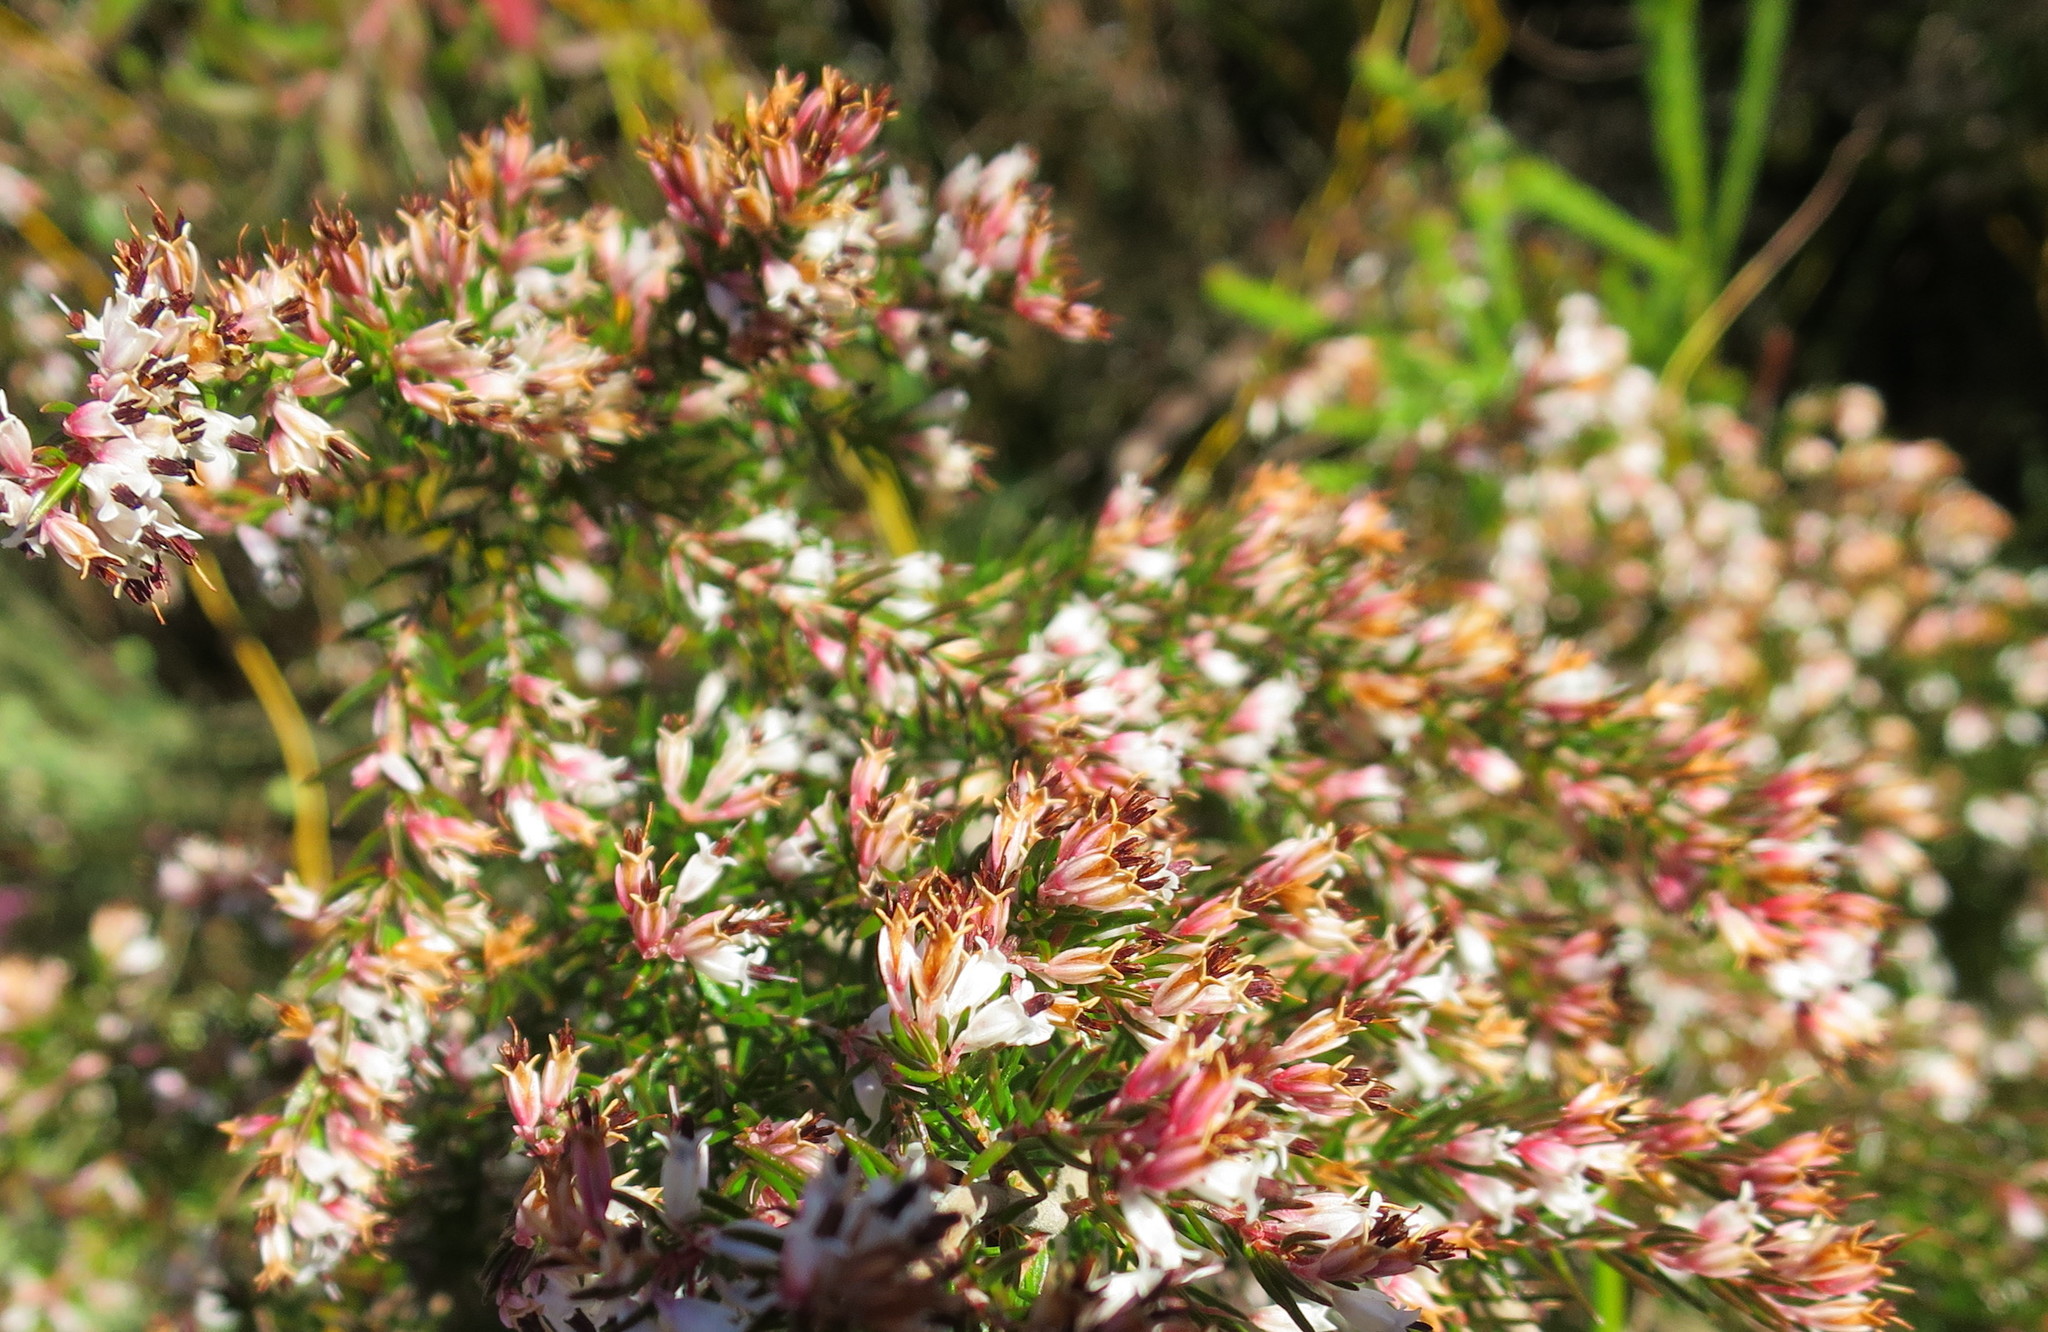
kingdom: Plantae
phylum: Tracheophyta
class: Magnoliopsida
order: Ericales
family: Ericaceae
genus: Erica
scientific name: Erica fuscescens
